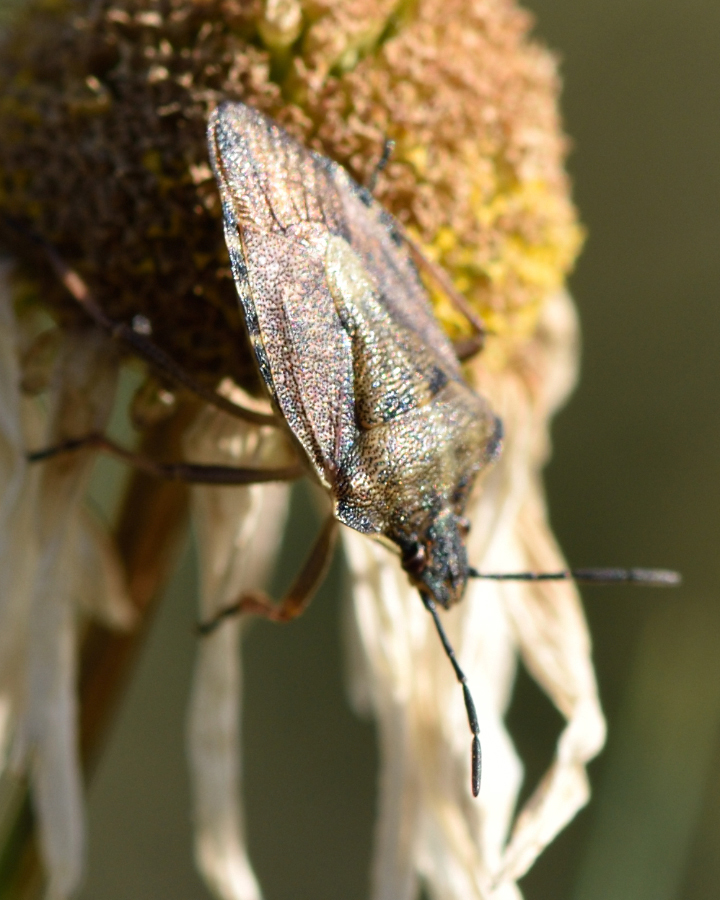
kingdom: Animalia
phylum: Arthropoda
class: Insecta
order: Hemiptera
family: Pentatomidae
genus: Carpocoris
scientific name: Carpocoris purpureipennis
